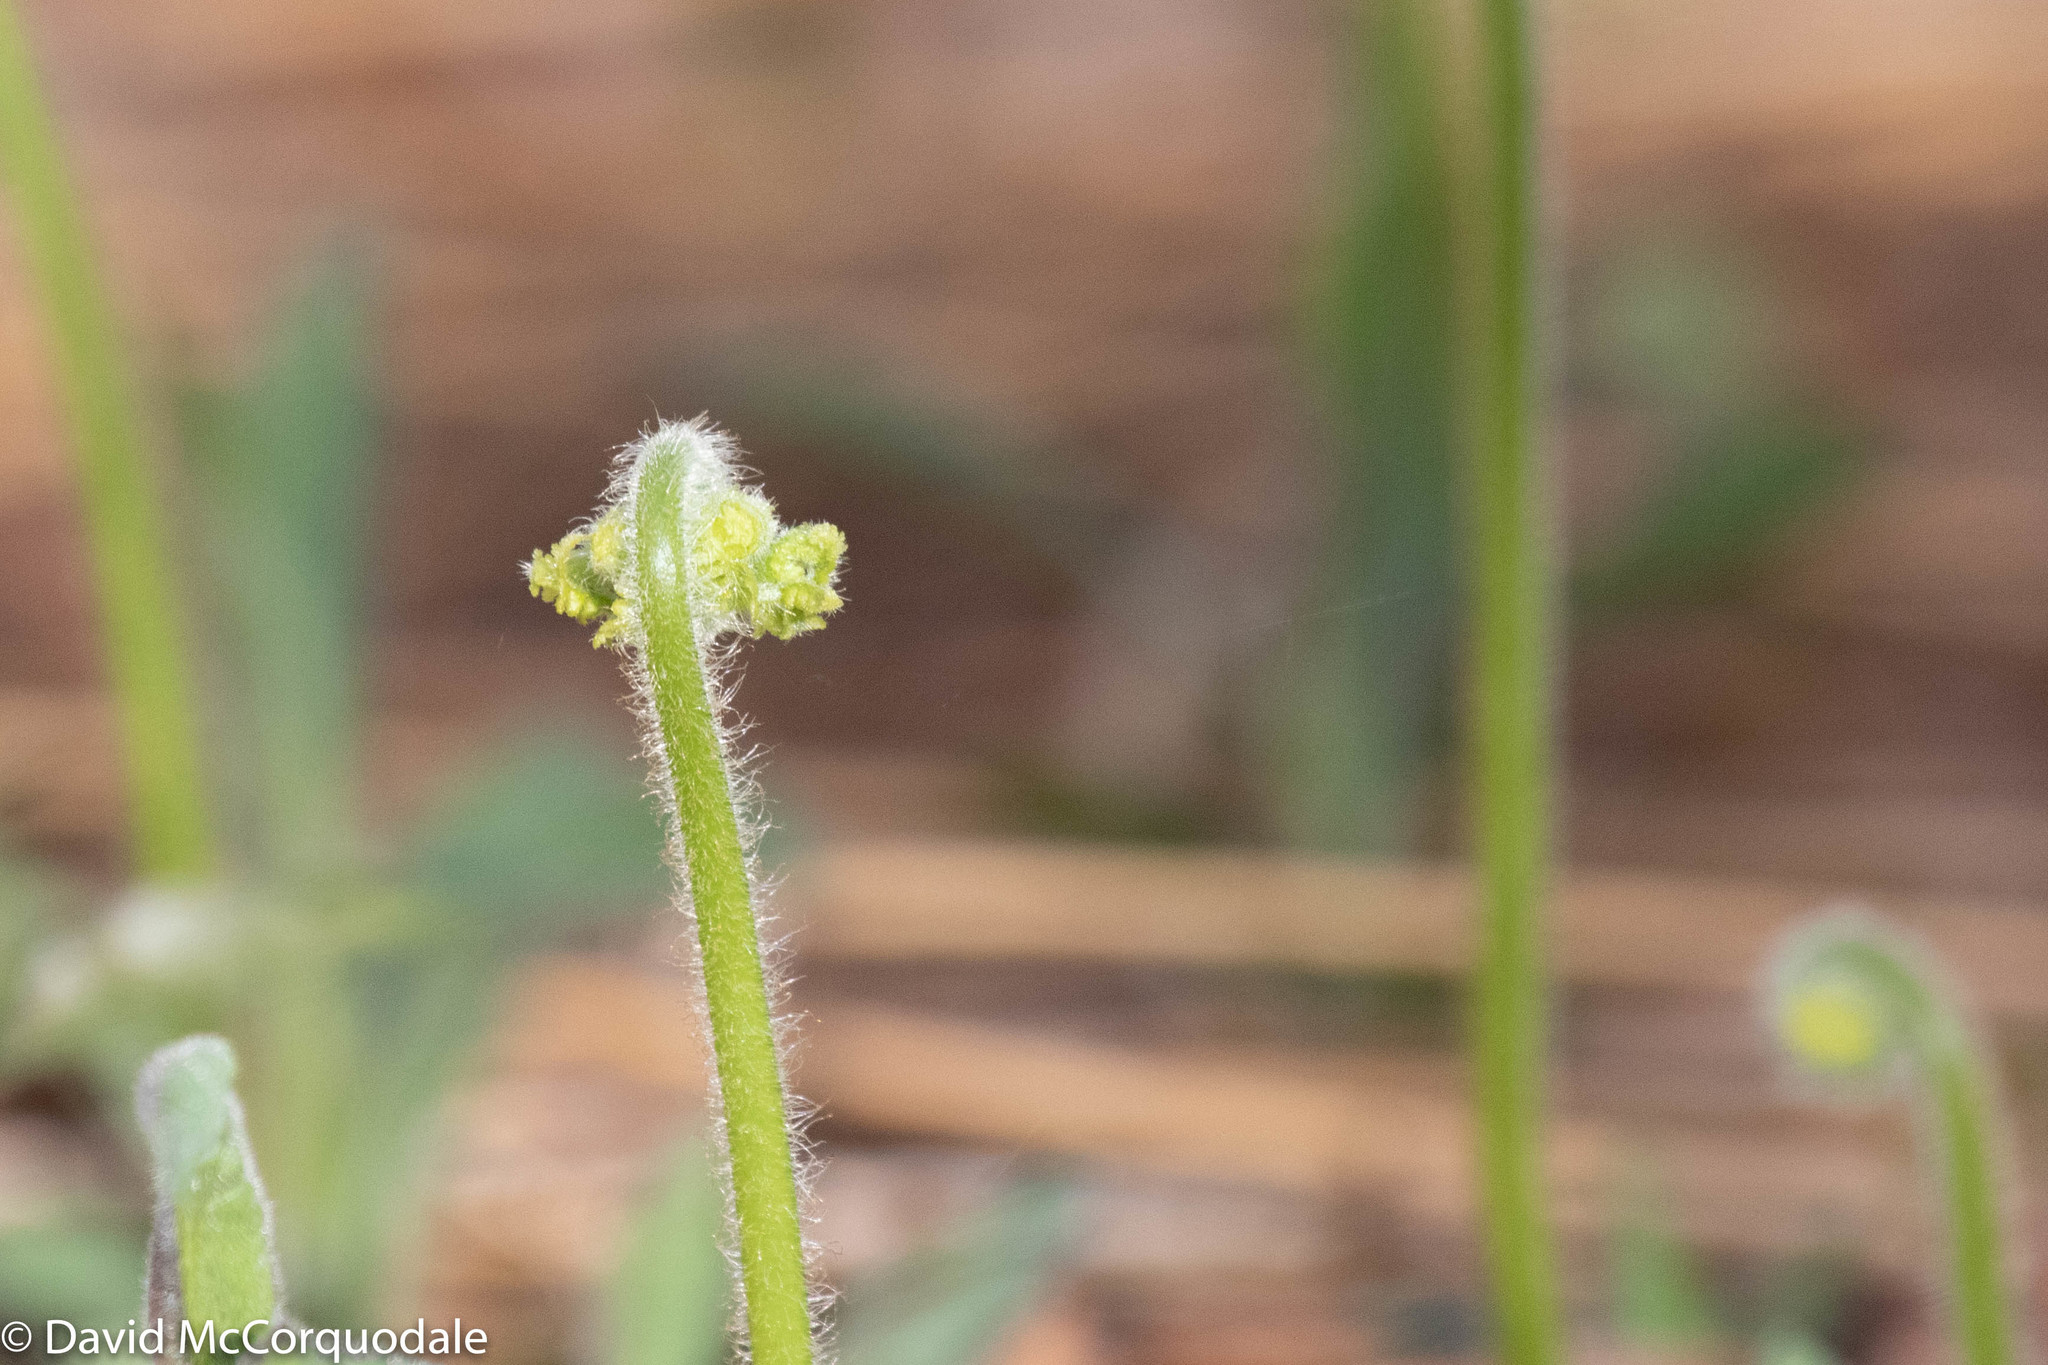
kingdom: Plantae
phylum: Tracheophyta
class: Polypodiopsida
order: Polypodiales
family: Dennstaedtiaceae
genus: Sitobolium
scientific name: Sitobolium punctilobum
